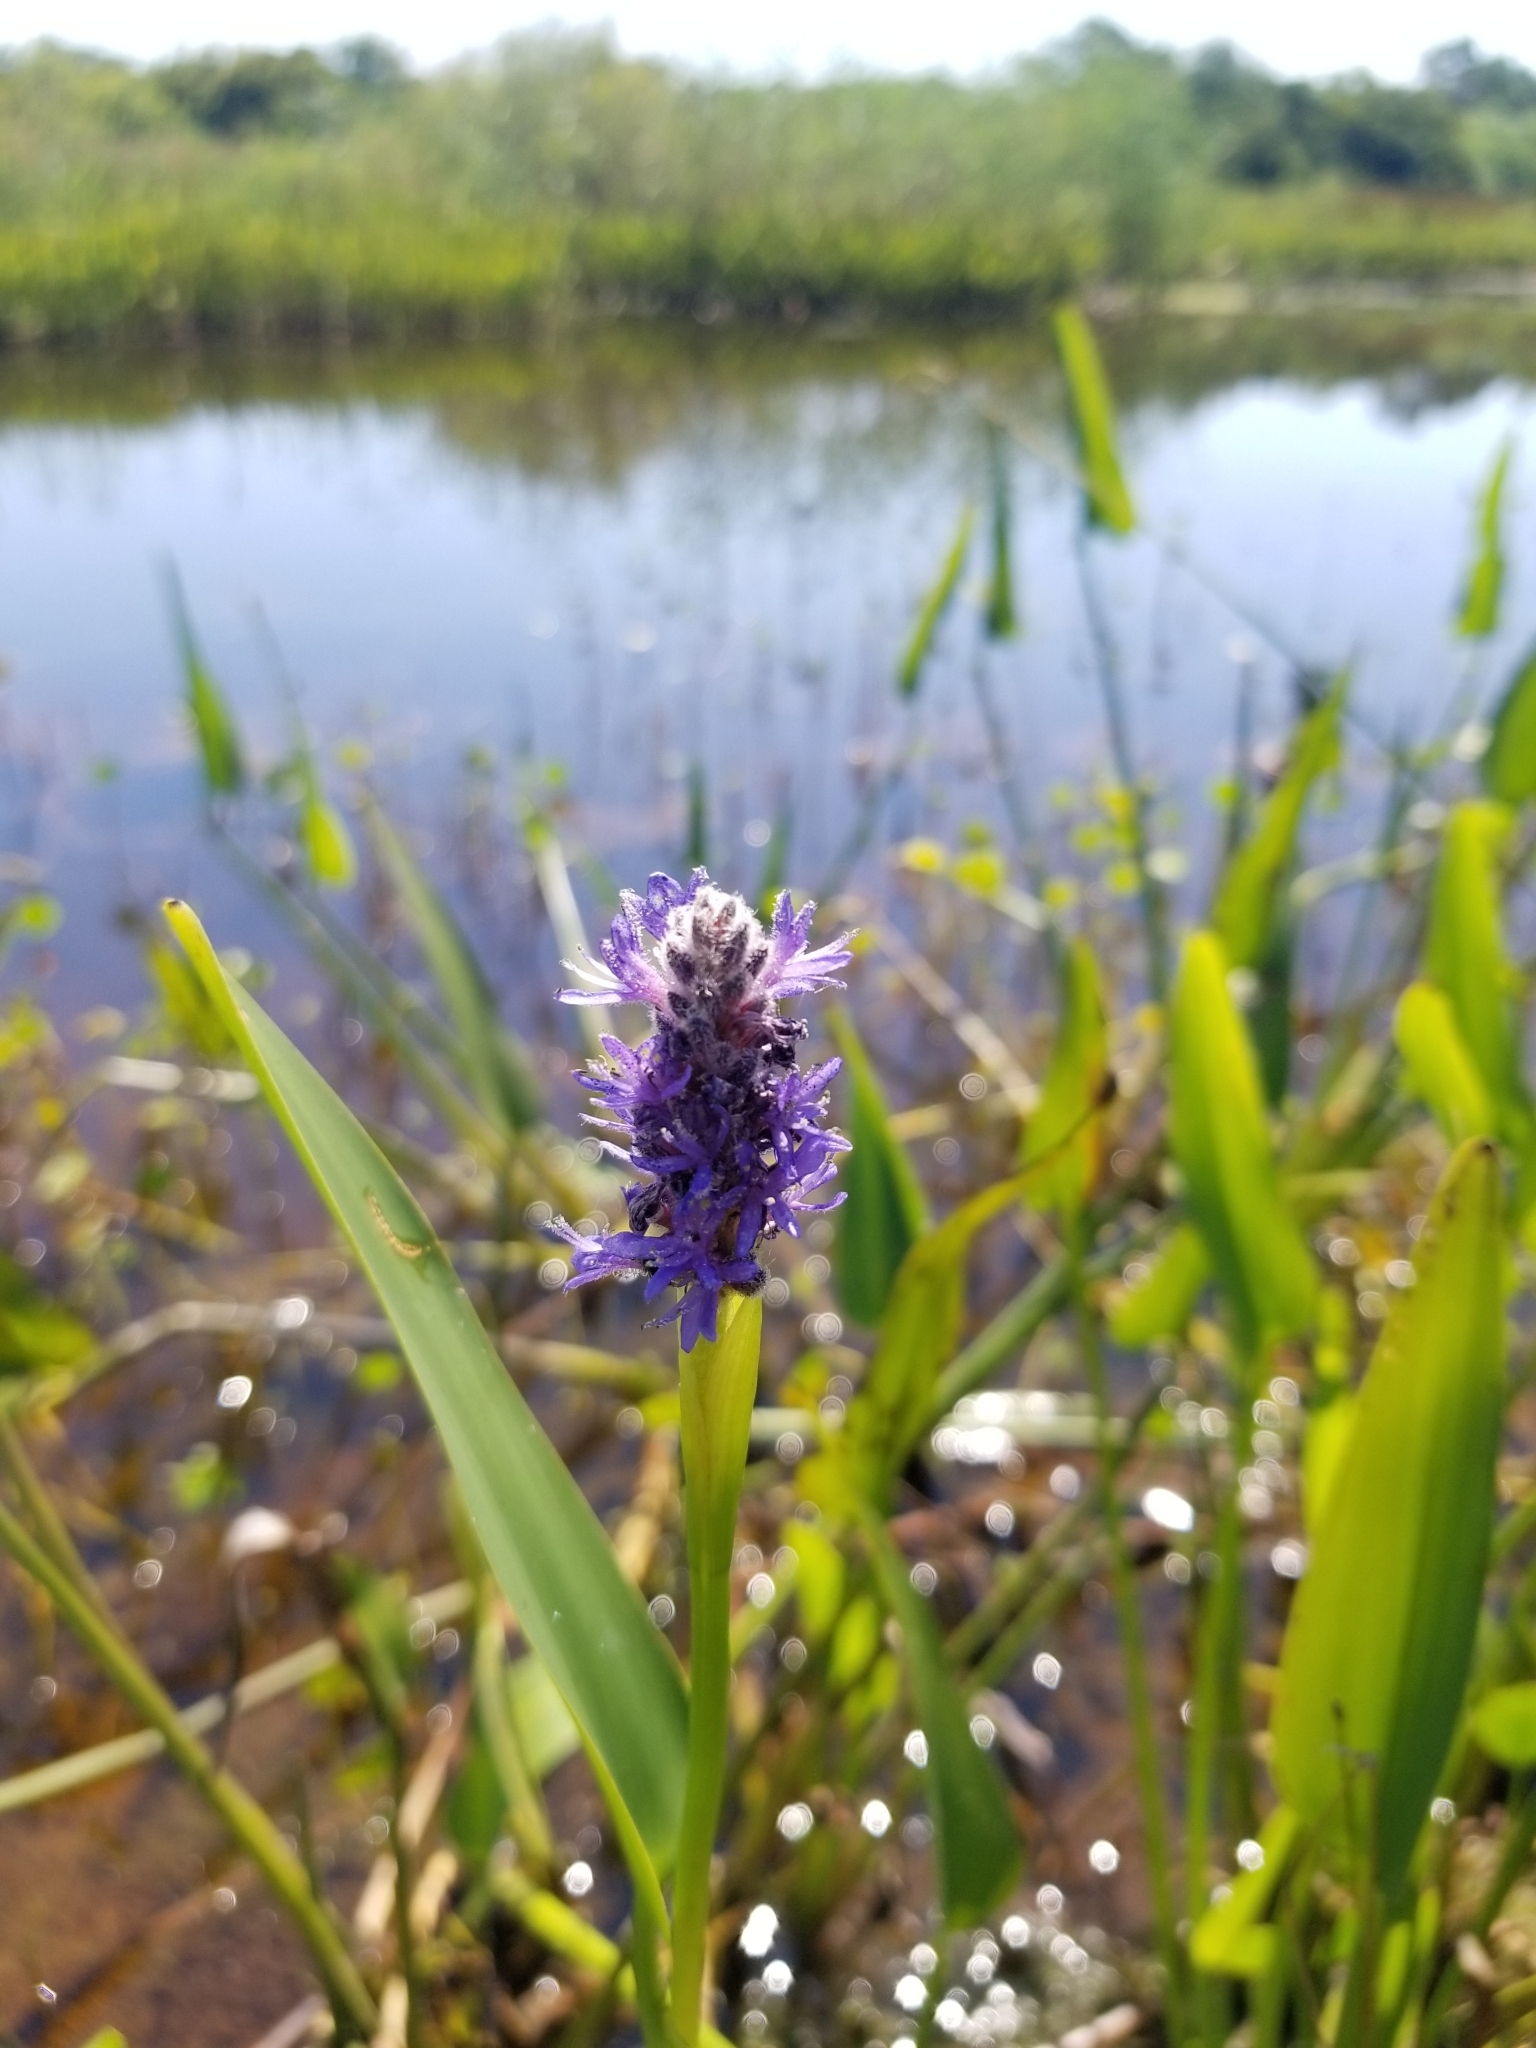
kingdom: Plantae
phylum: Tracheophyta
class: Liliopsida
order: Commelinales
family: Pontederiaceae
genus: Pontederia
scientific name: Pontederia cordata
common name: Pickerelweed
